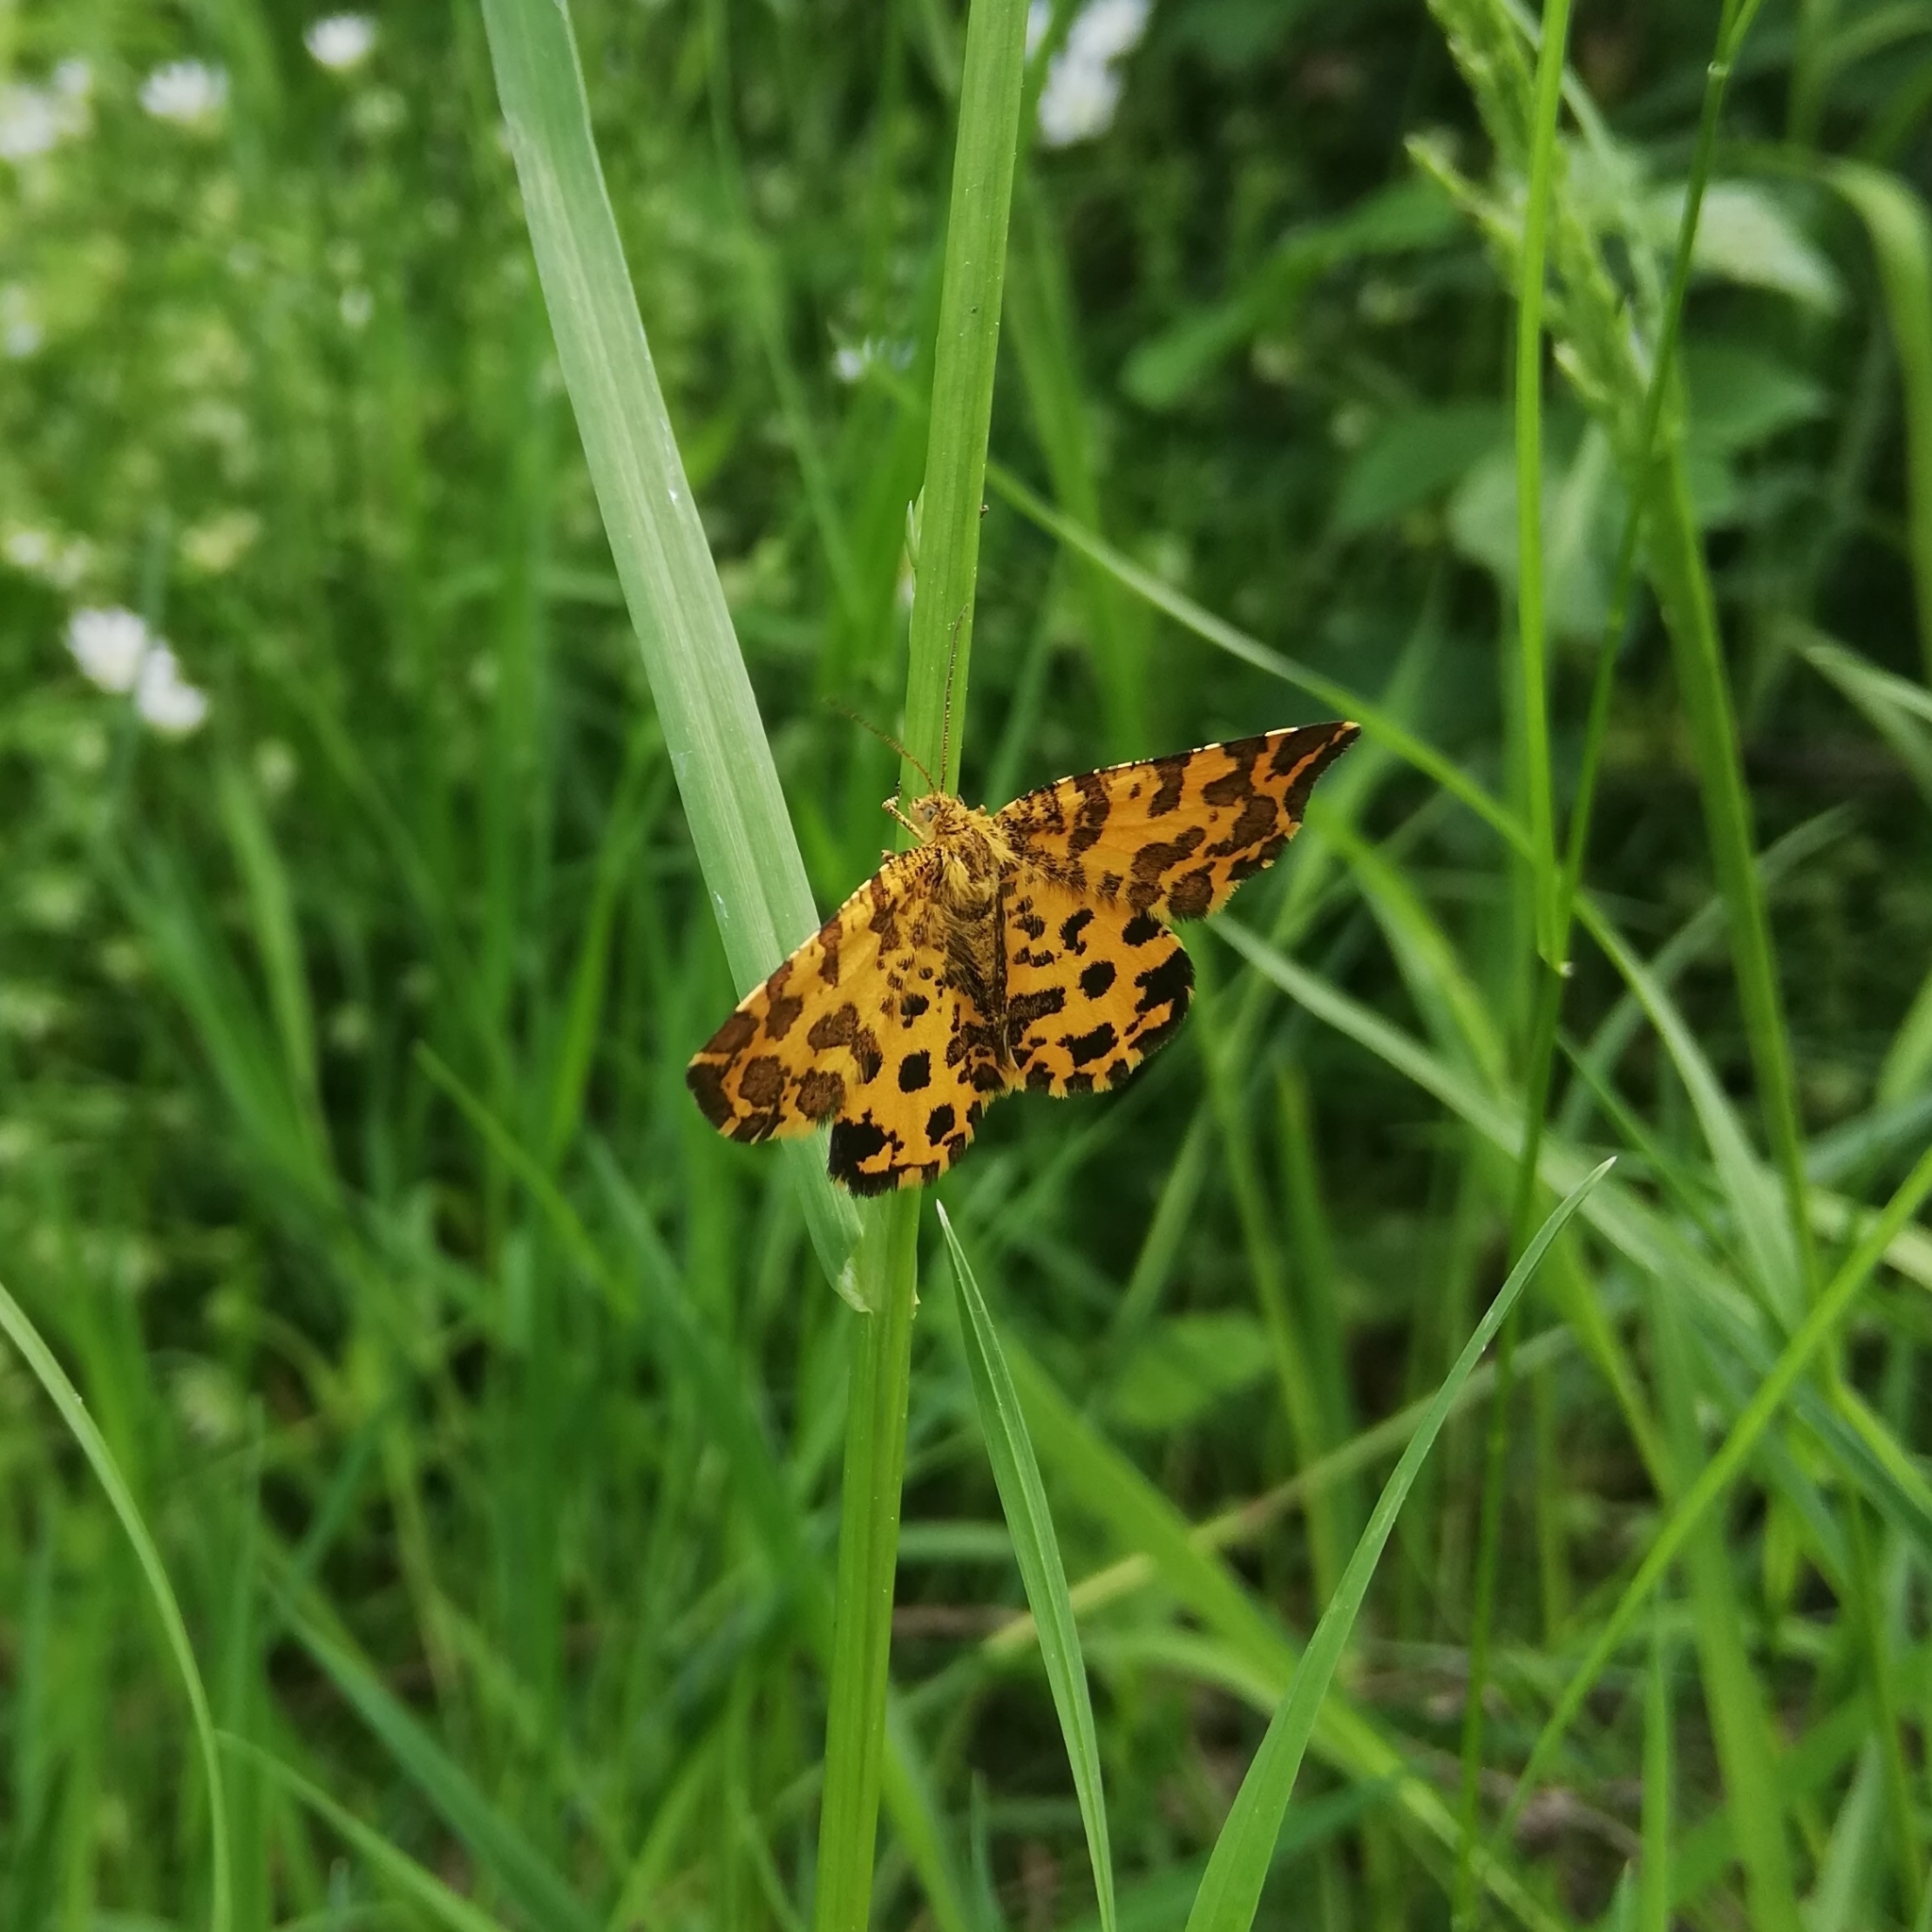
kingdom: Animalia
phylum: Arthropoda
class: Insecta
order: Lepidoptera
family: Geometridae
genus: Pseudopanthera
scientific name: Pseudopanthera macularia
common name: Speckled yellow
